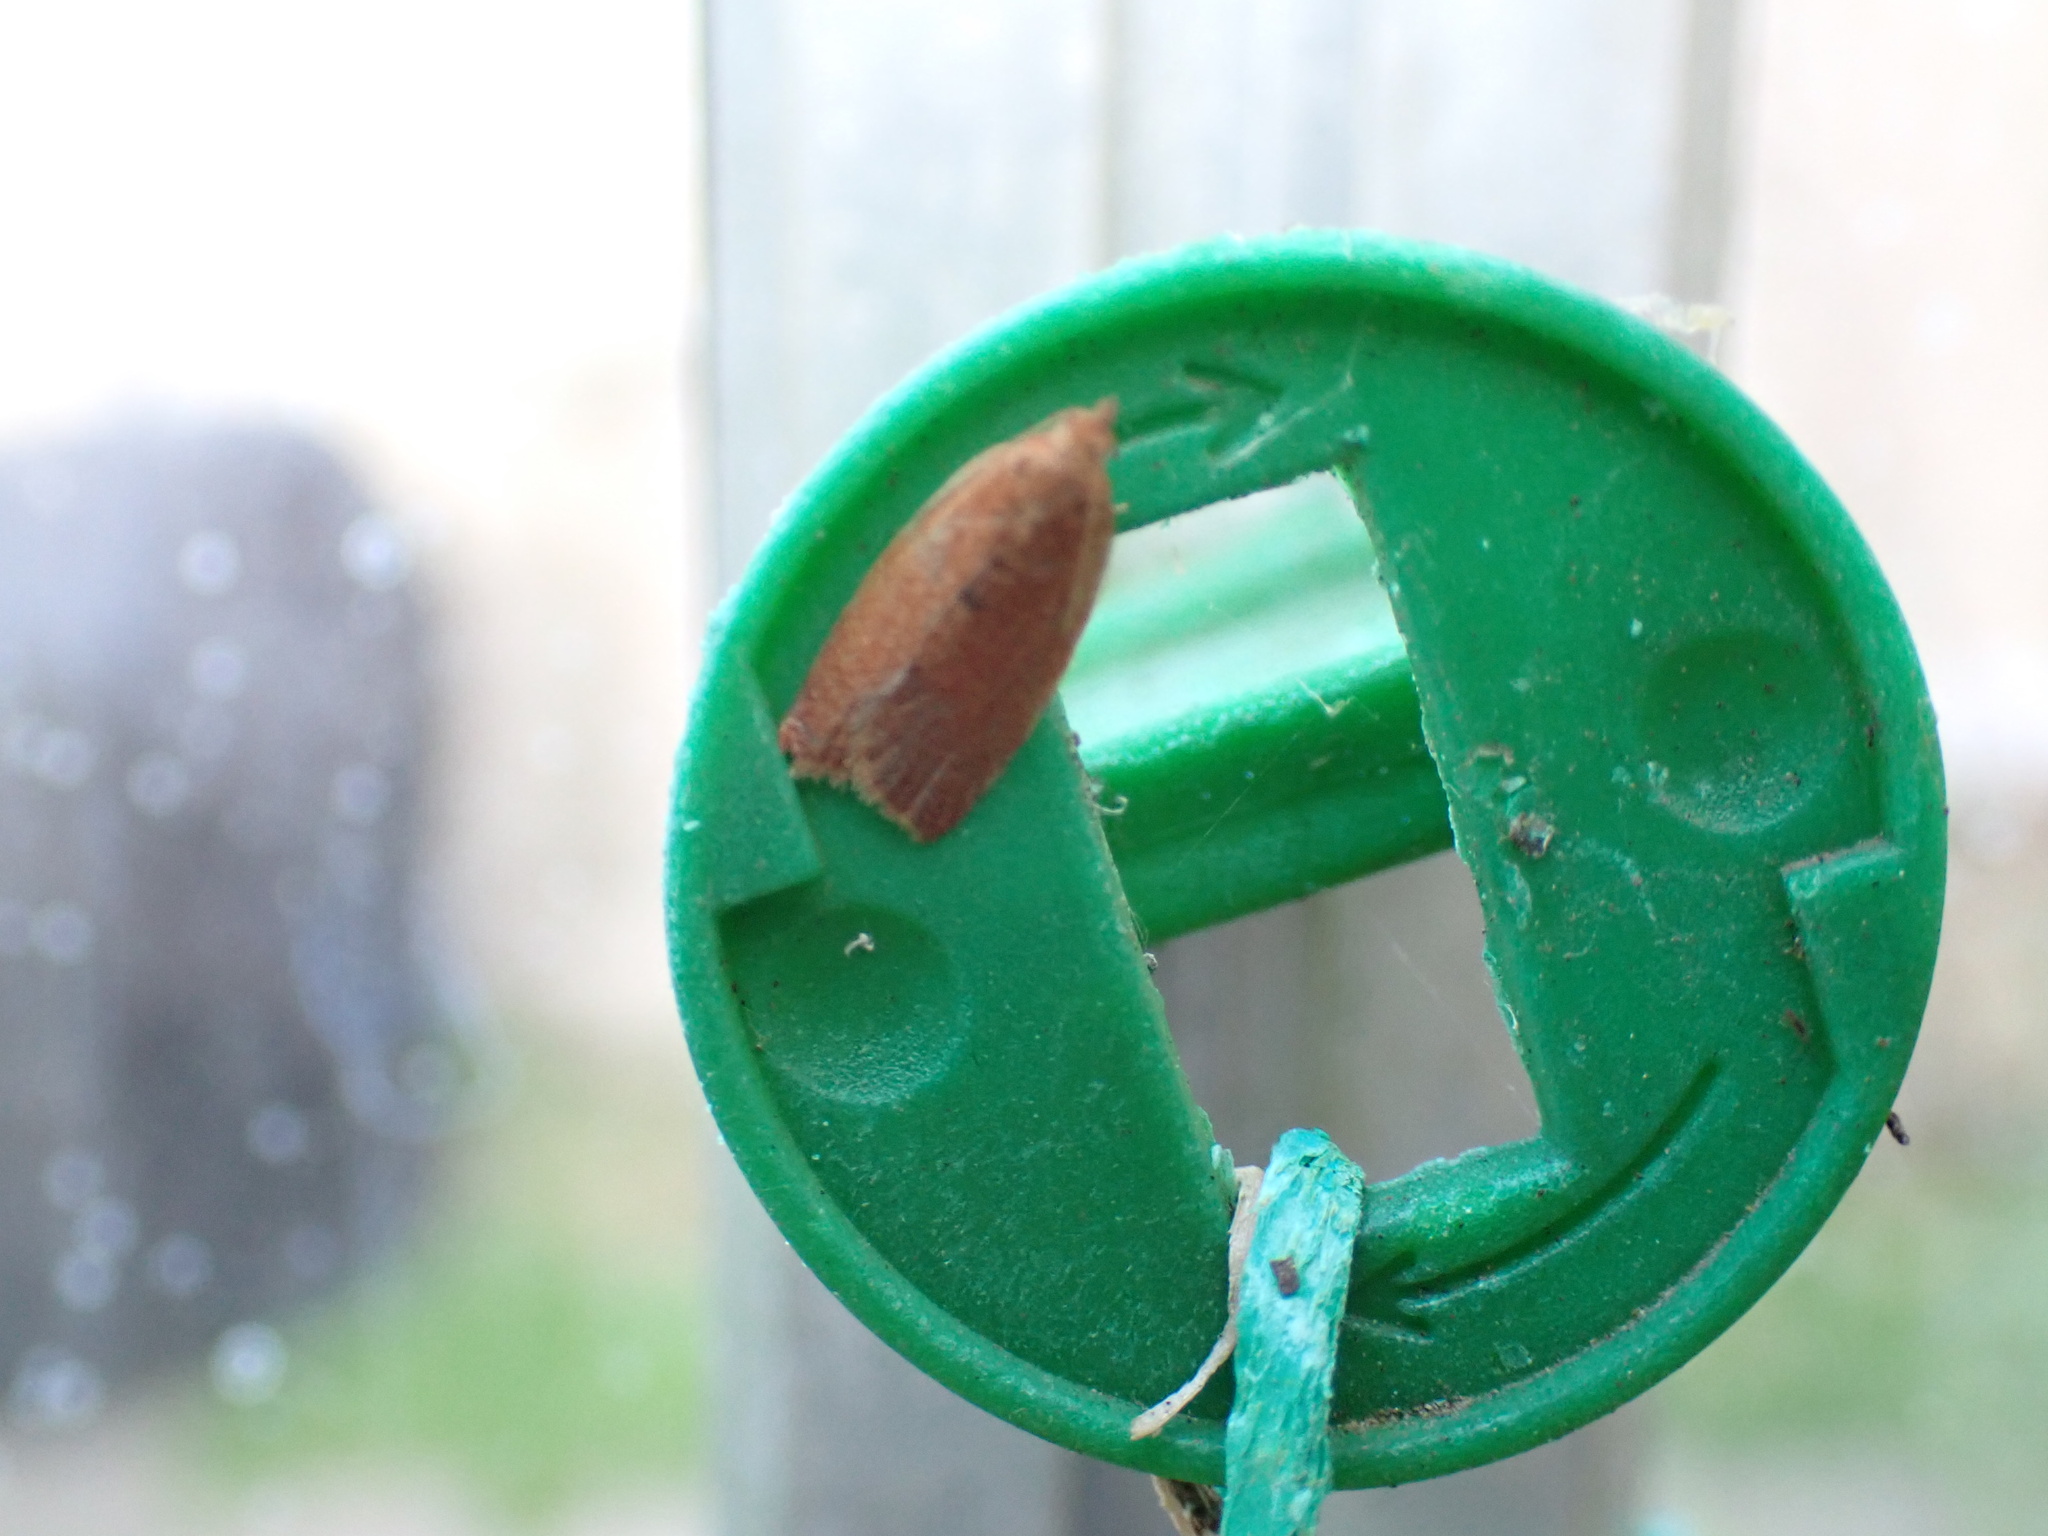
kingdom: Animalia
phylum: Arthropoda
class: Insecta
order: Lepidoptera
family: Tortricidae
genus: Clepsis
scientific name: Clepsis consimilana
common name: Privet tortrix
